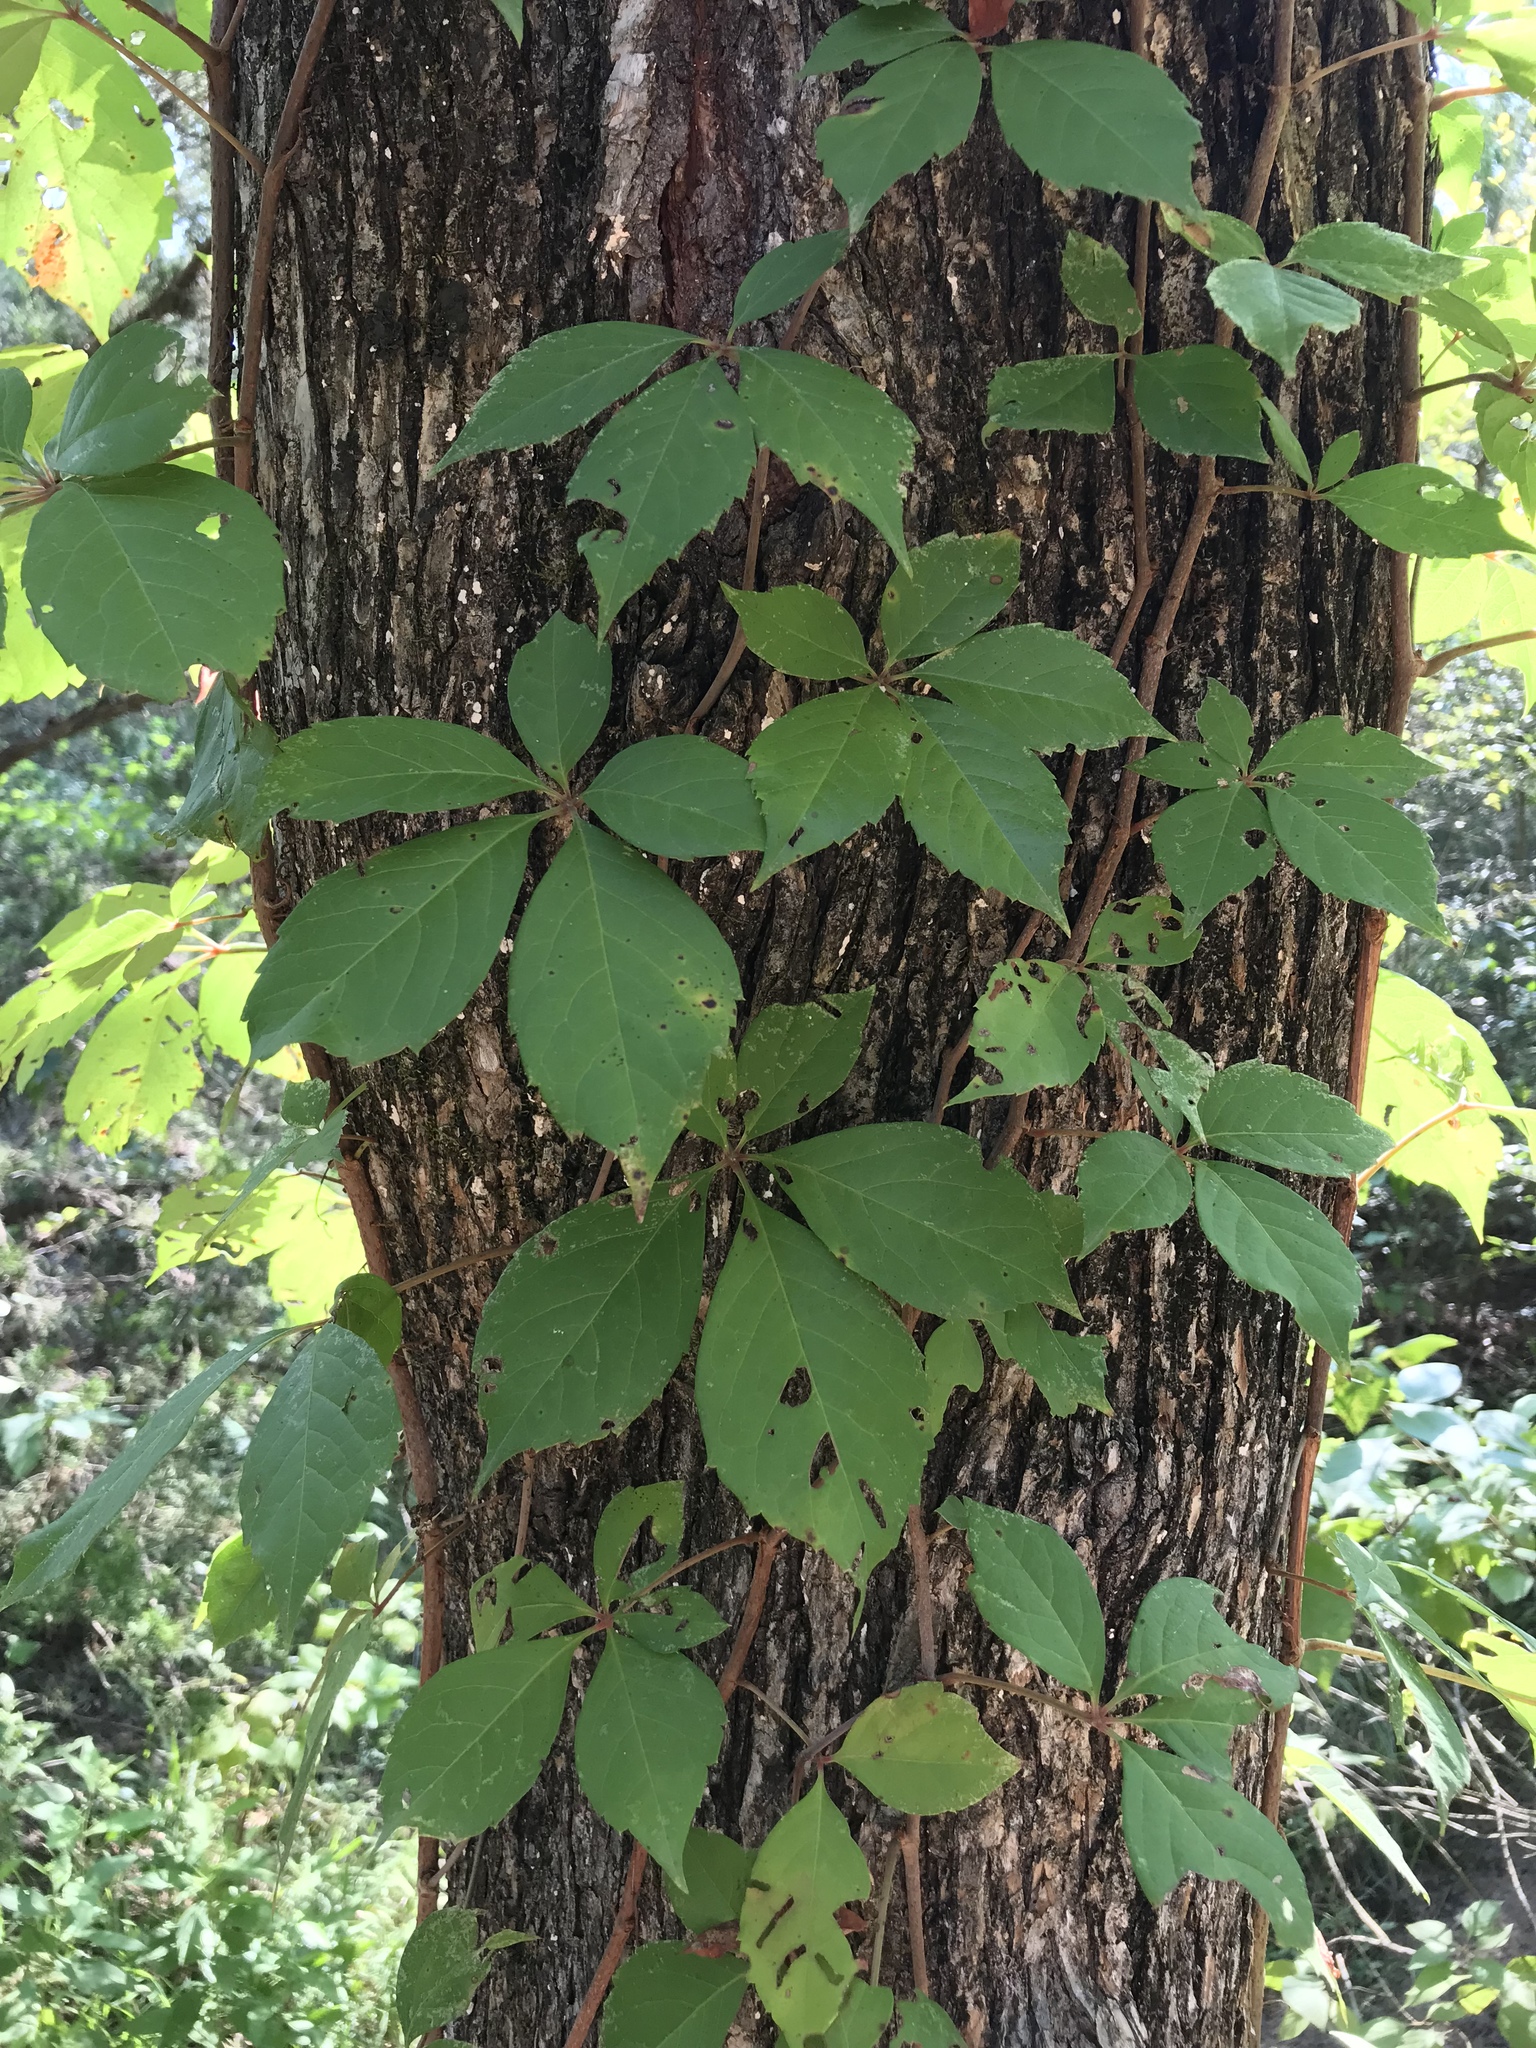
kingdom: Plantae
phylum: Tracheophyta
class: Magnoliopsida
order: Vitales
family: Vitaceae
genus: Parthenocissus
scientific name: Parthenocissus quinquefolia
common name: Virginia-creeper
